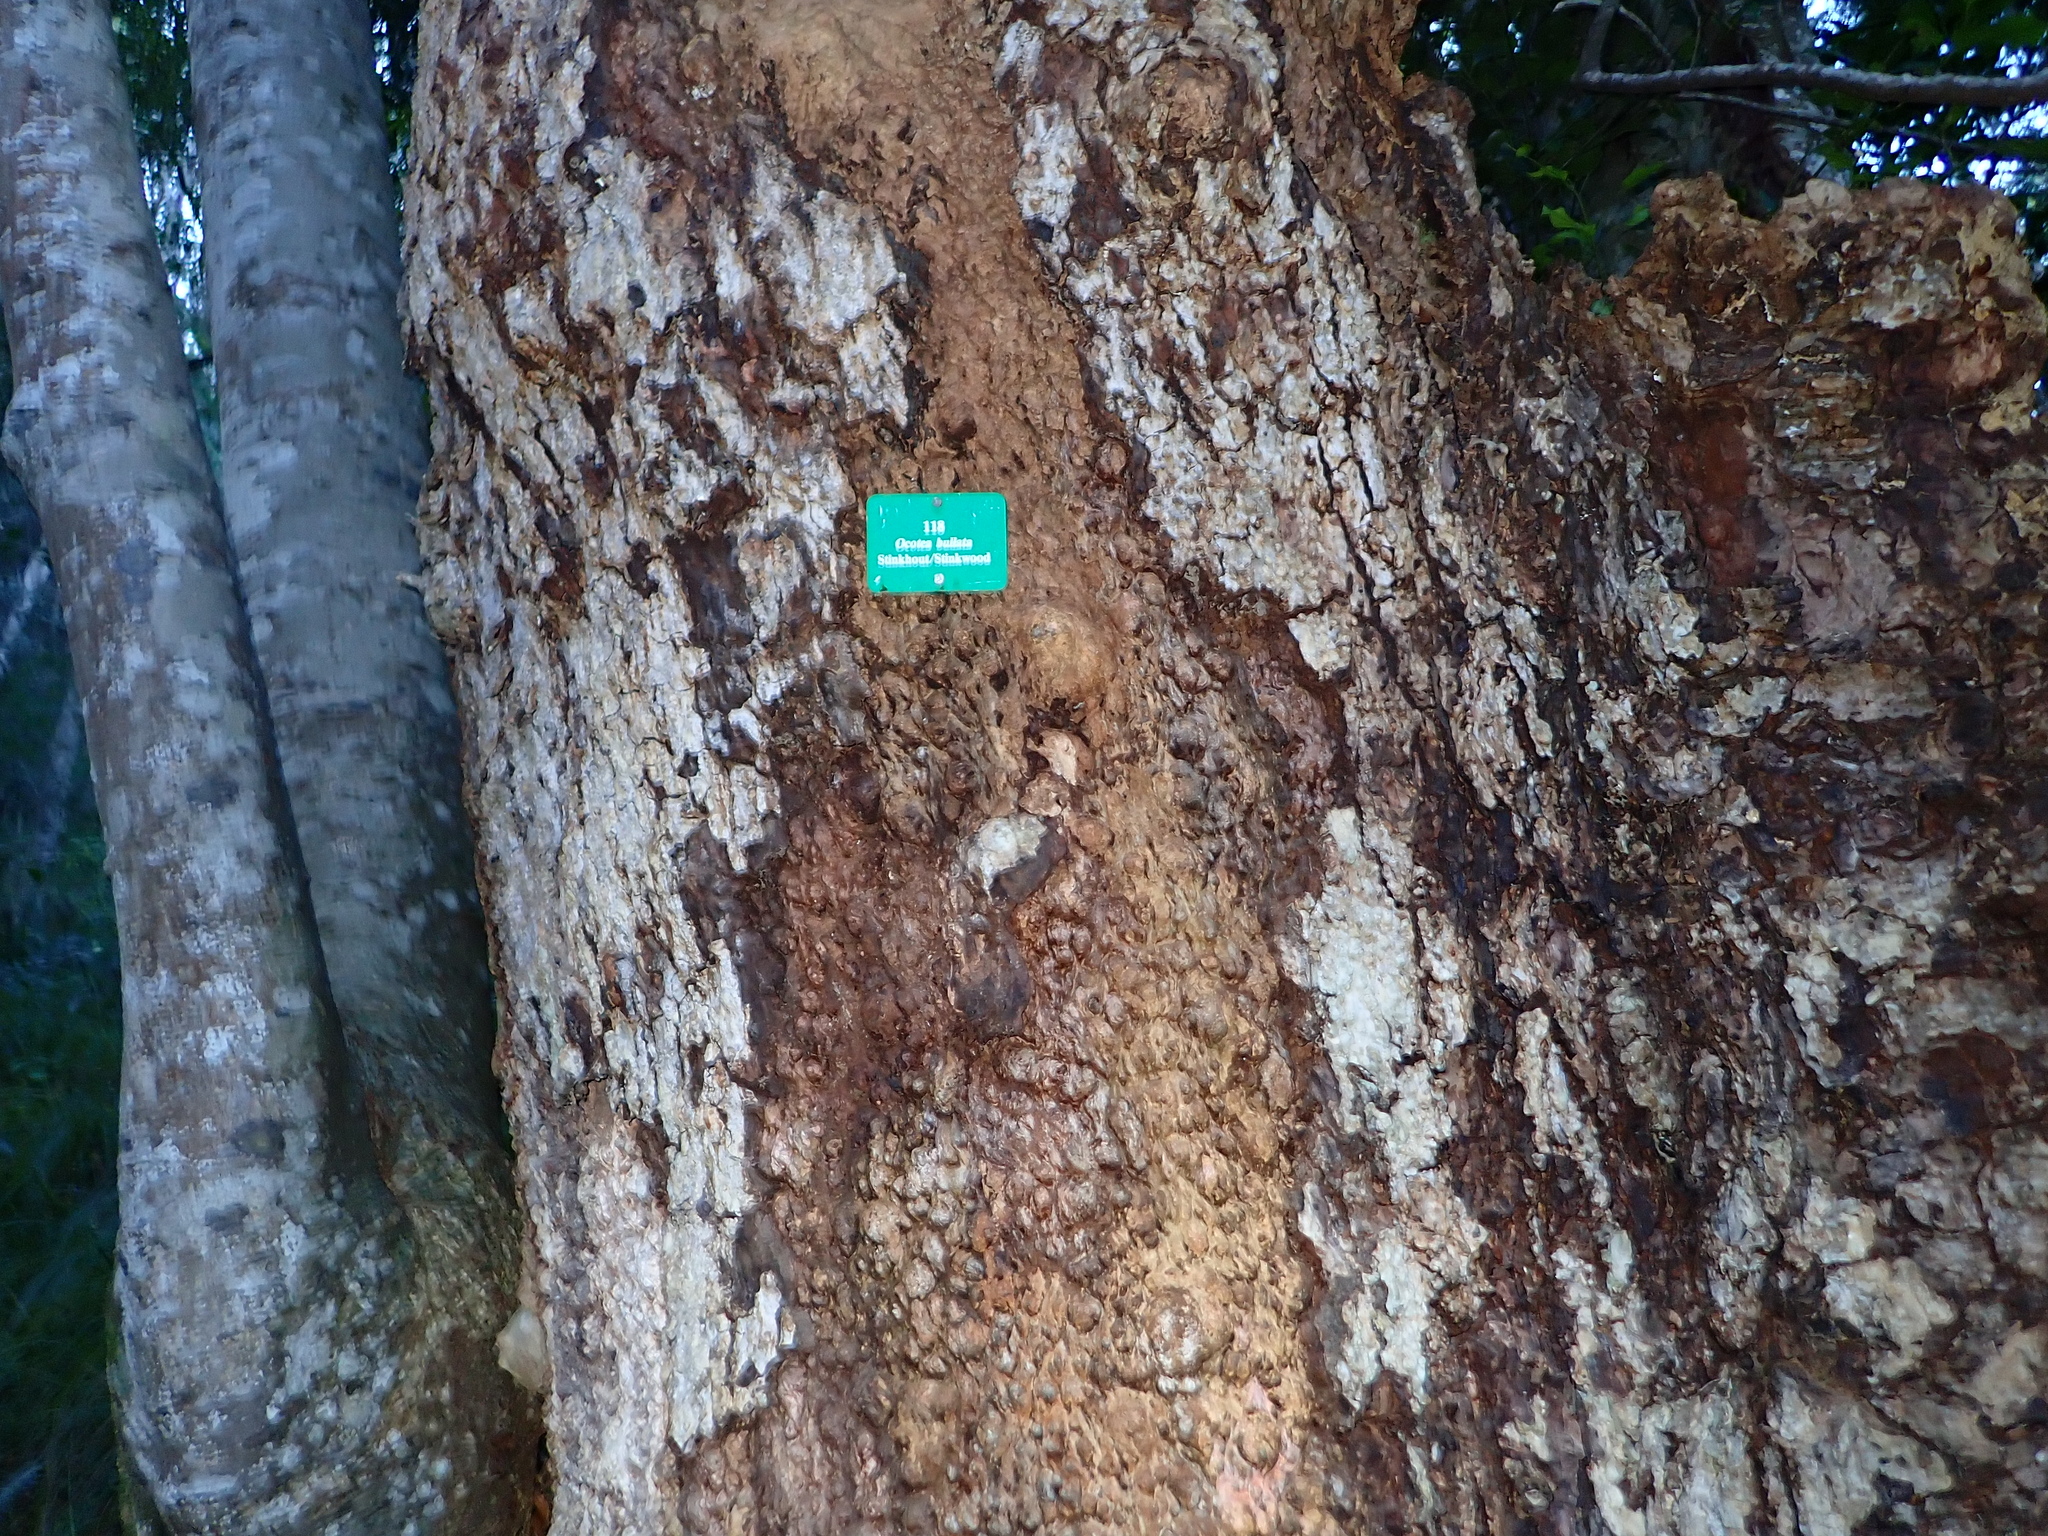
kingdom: Plantae
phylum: Tracheophyta
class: Magnoliopsida
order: Laurales
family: Lauraceae
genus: Ocotea
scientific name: Ocotea bullata
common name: Black stinkwood
